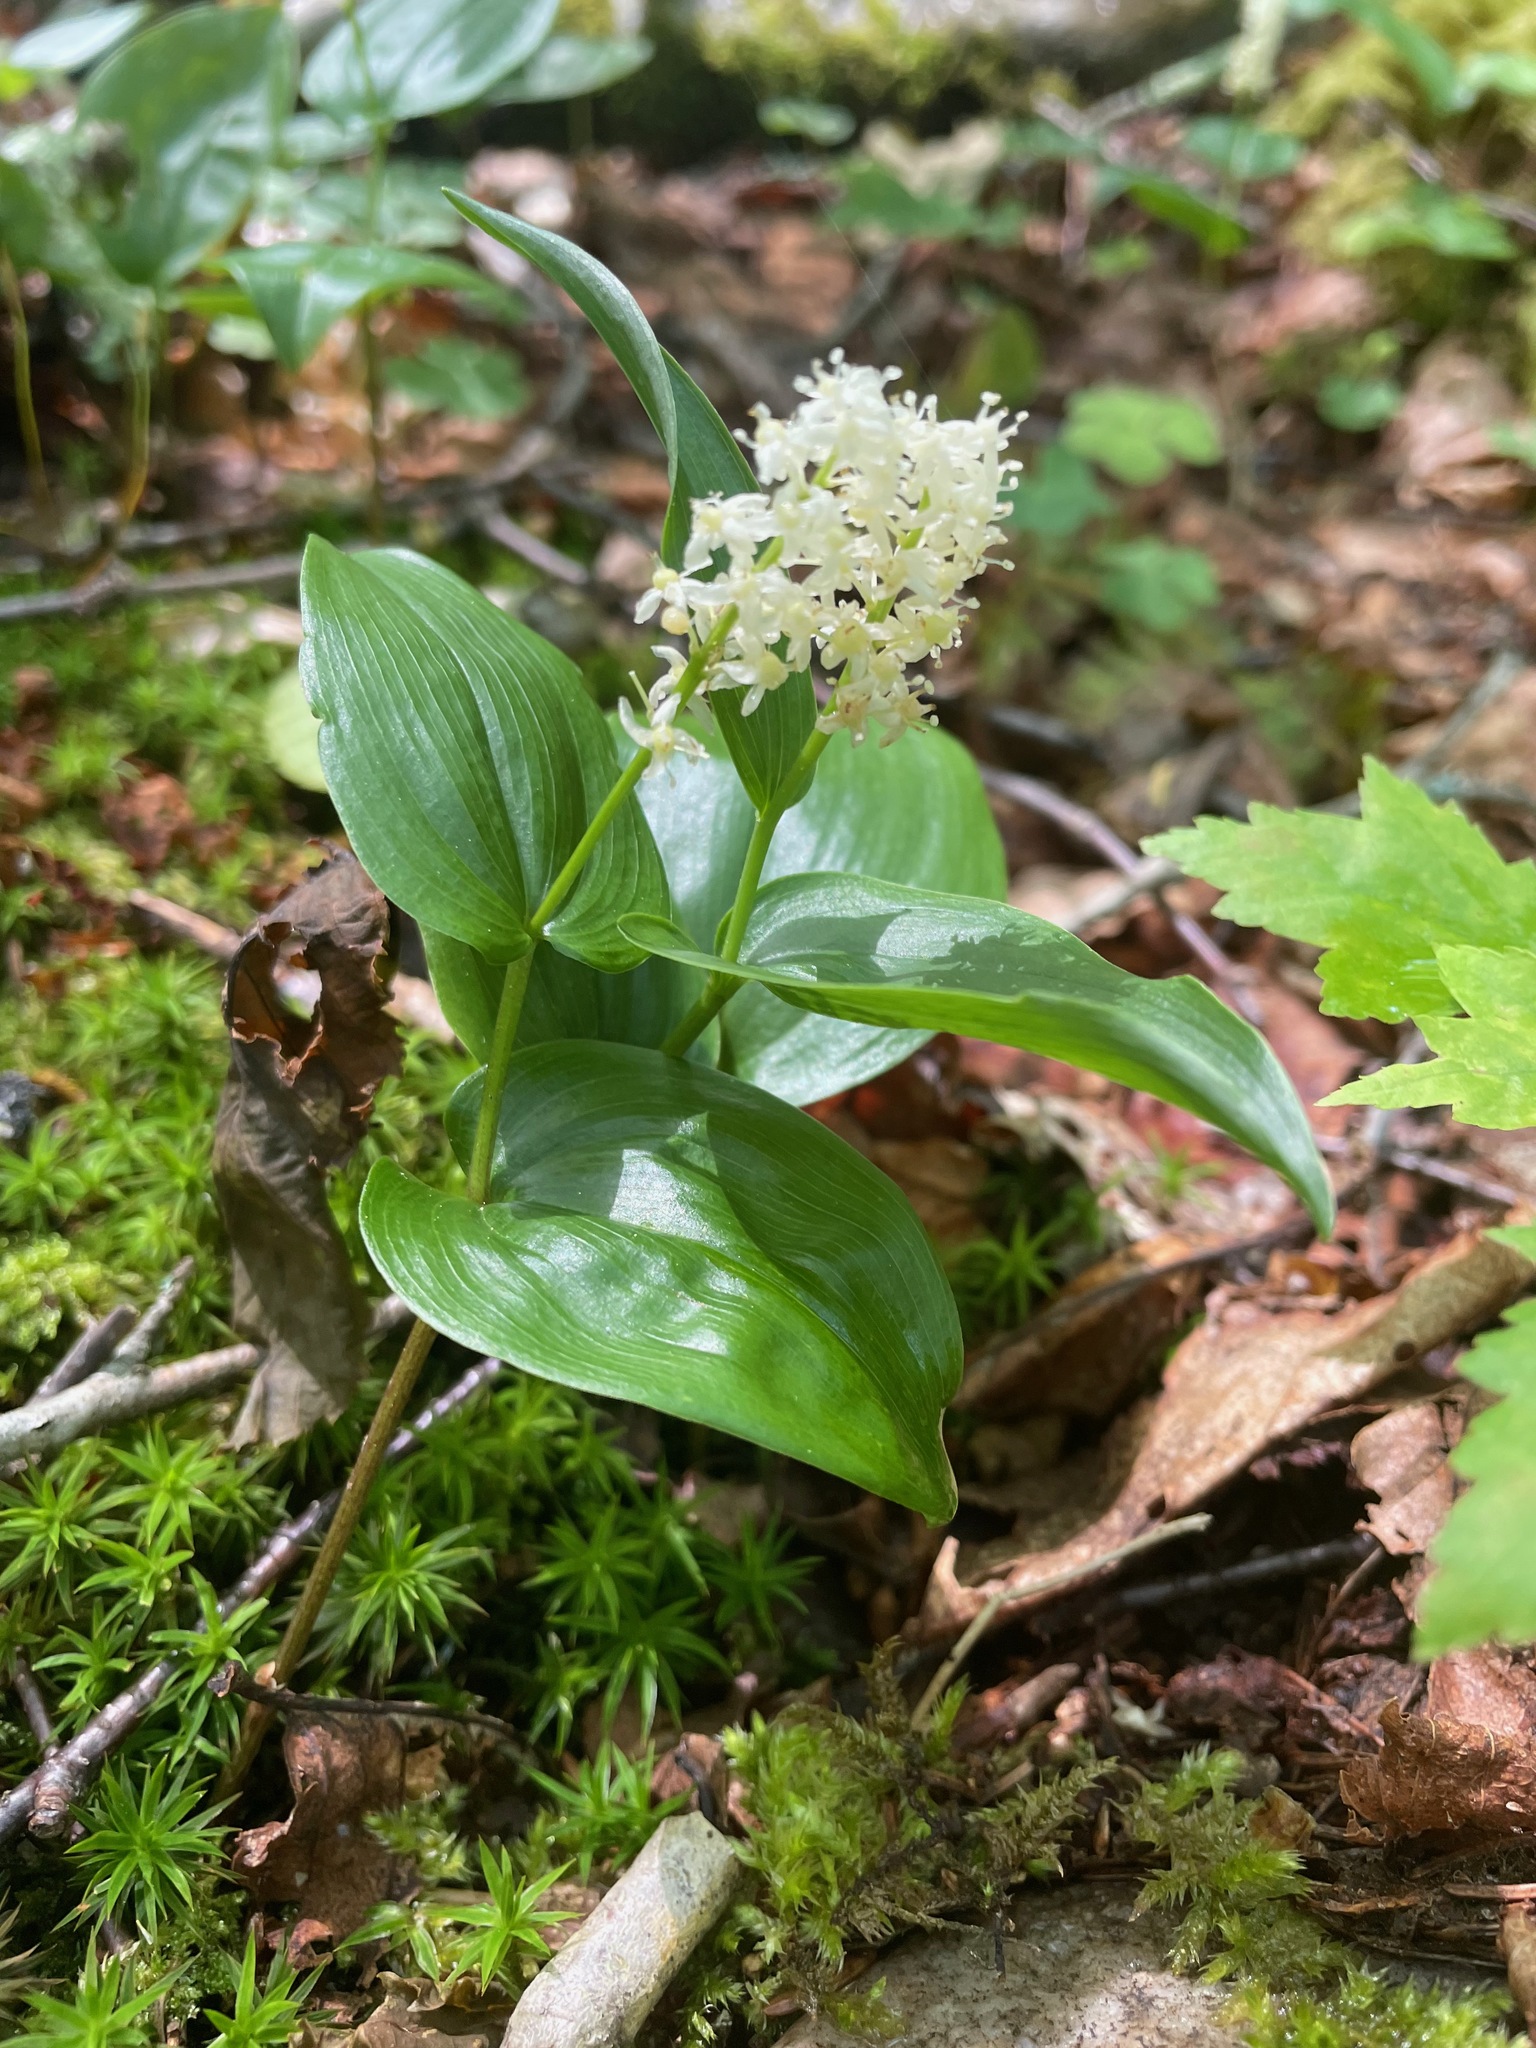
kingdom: Plantae
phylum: Tracheophyta
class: Liliopsida
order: Asparagales
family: Asparagaceae
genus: Maianthemum
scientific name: Maianthemum canadense
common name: False lily-of-the-valley
